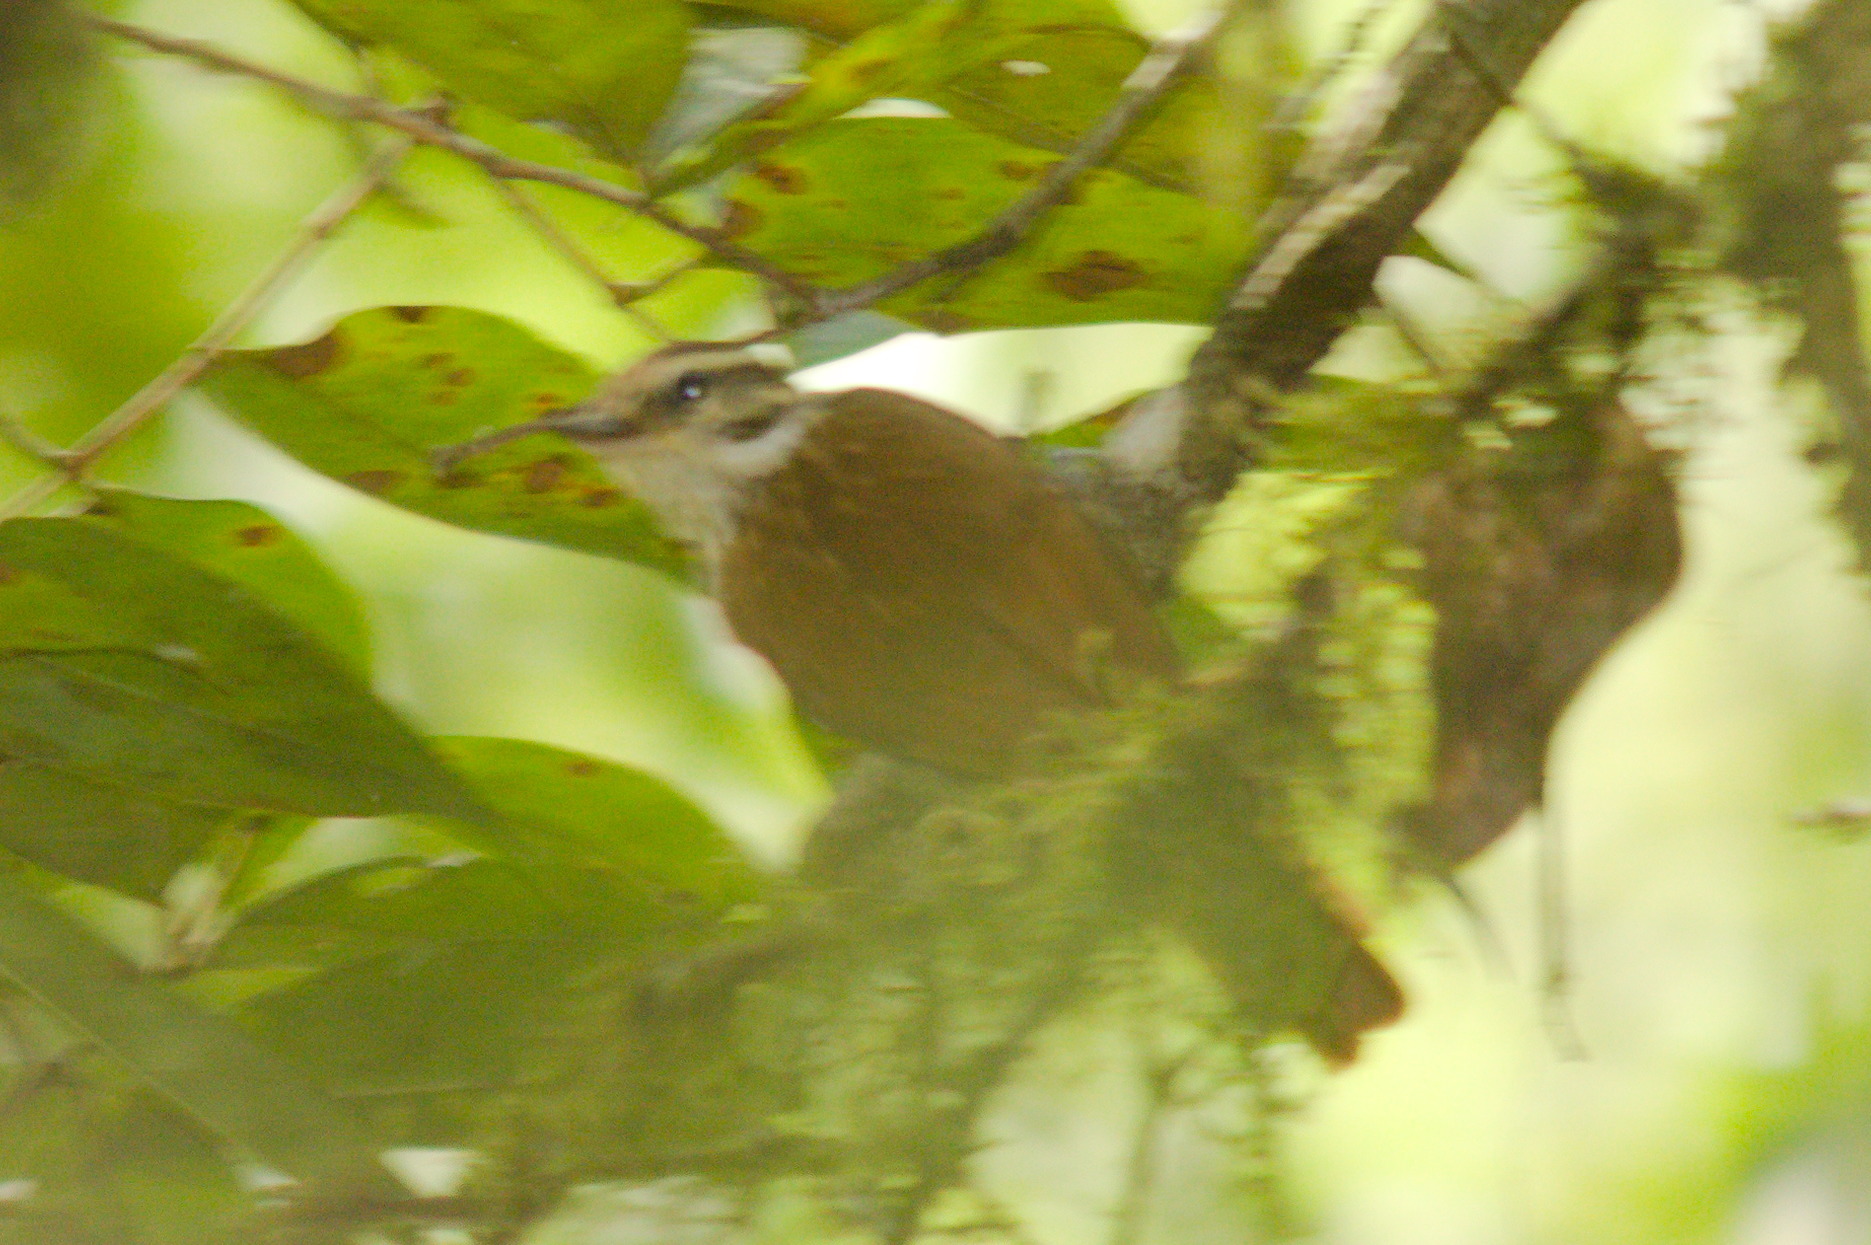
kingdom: Animalia
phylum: Chordata
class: Aves
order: Passeriformes
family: Furnariidae
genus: Xenops
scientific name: Xenops rutilans
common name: Streaked xenops
